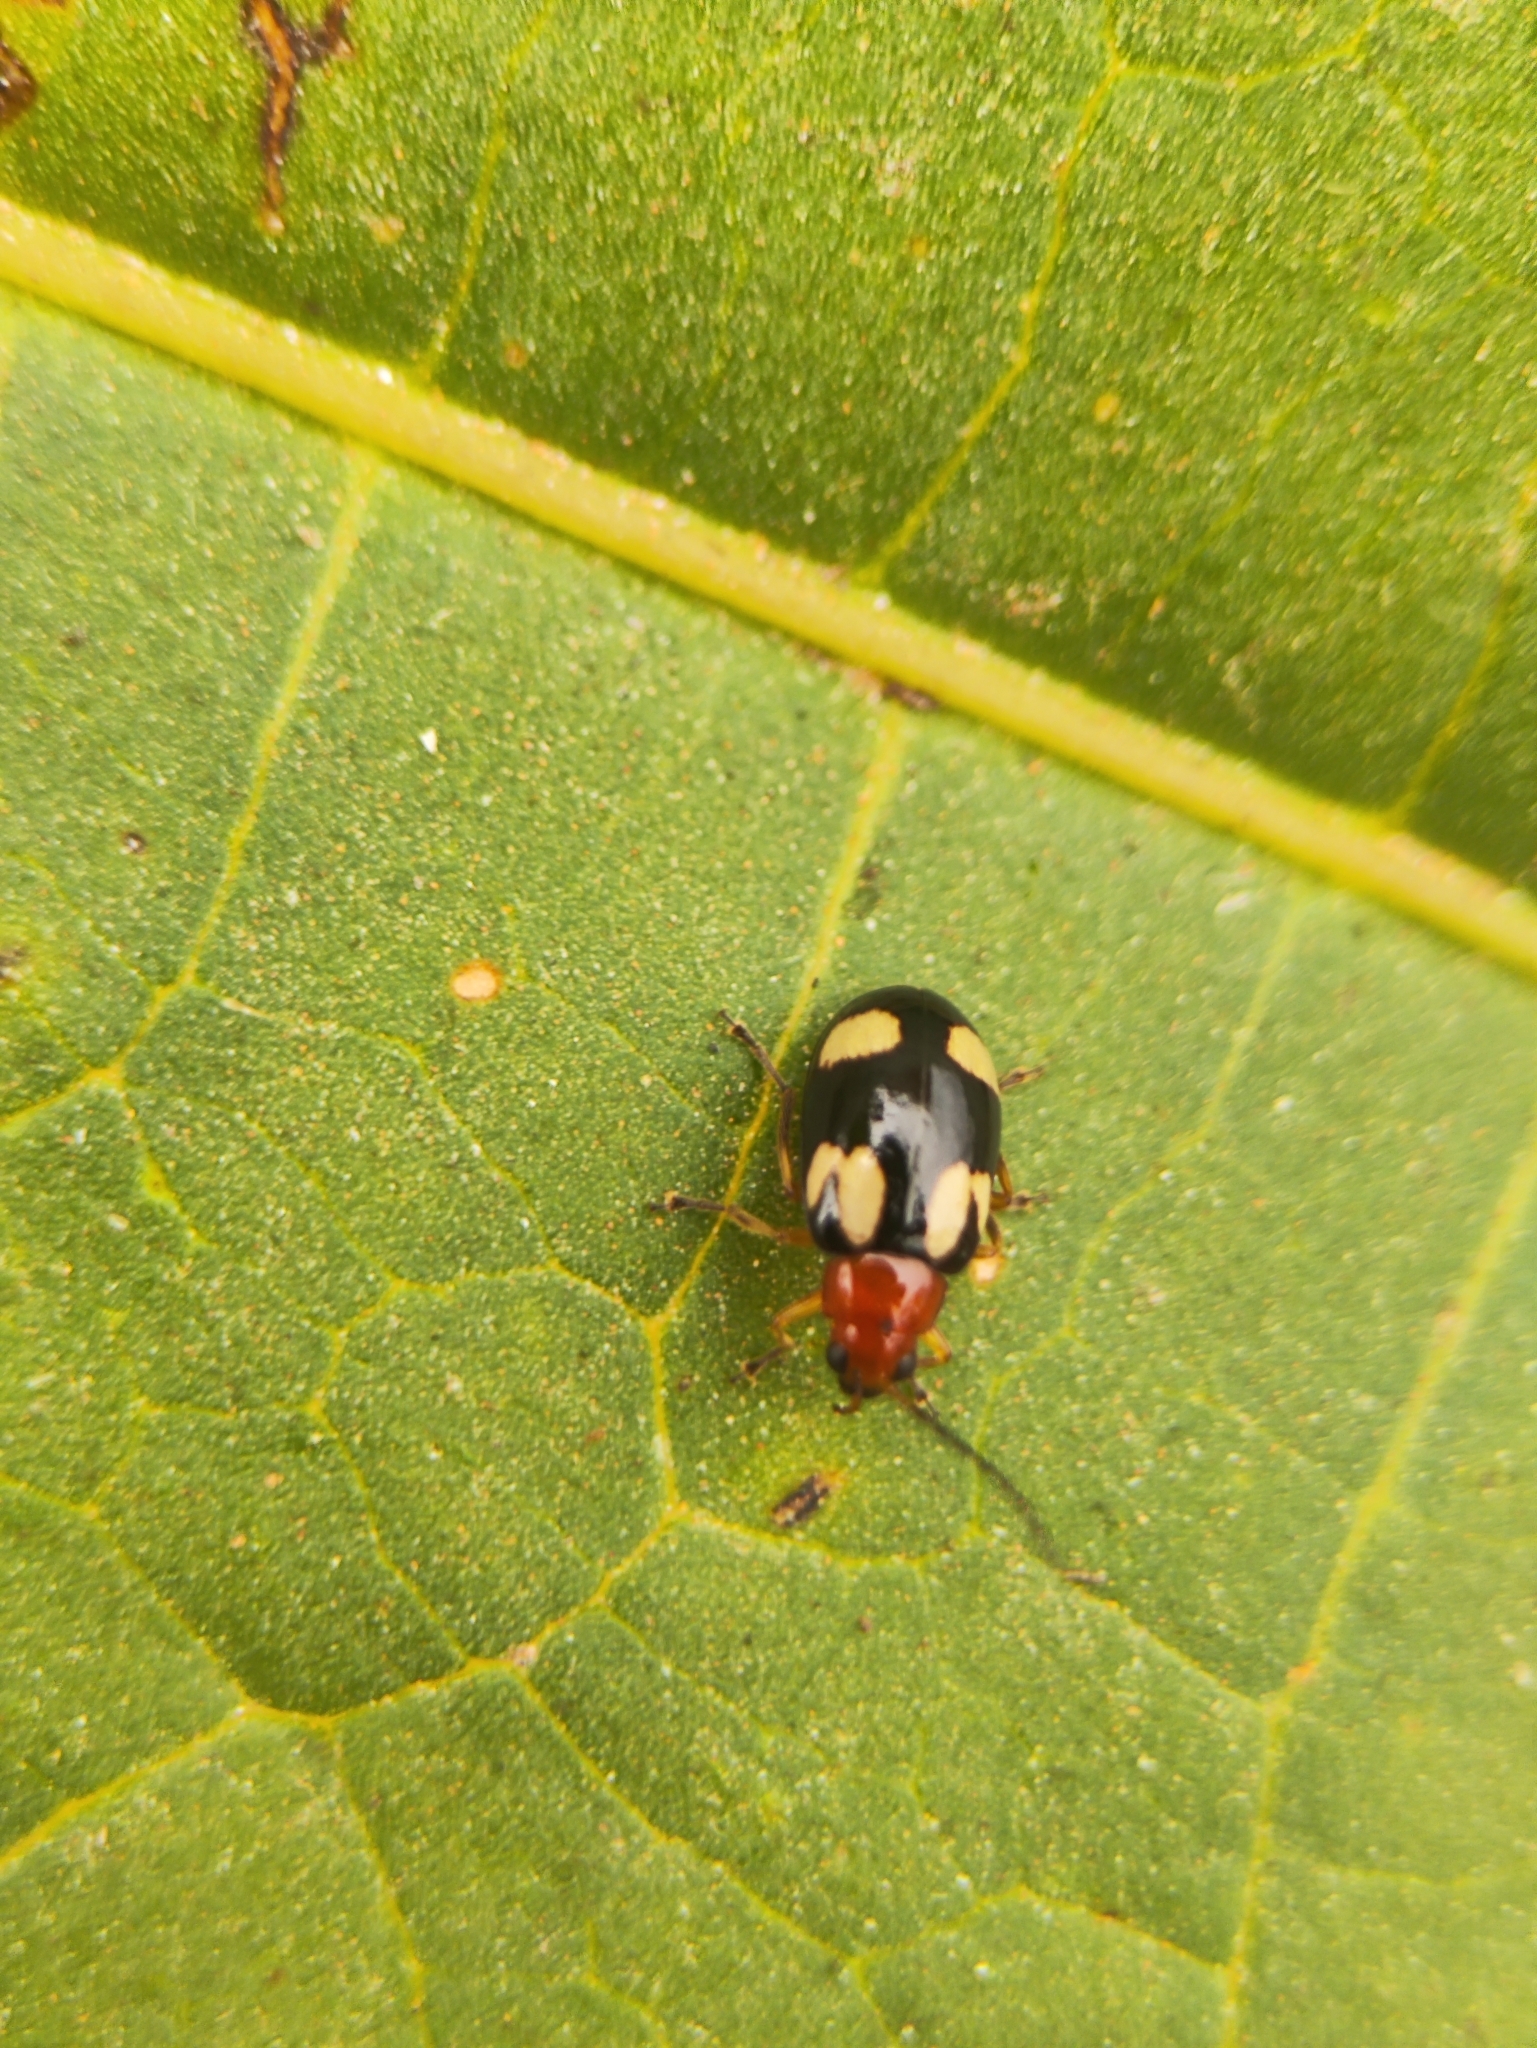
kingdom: Animalia
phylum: Arthropoda
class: Insecta
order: Coleoptera
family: Chrysomelidae
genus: Monolepta
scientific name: Monolepta signata
